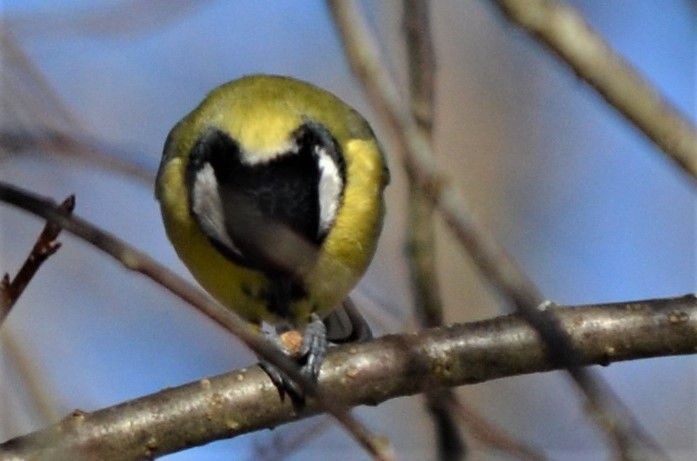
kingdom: Animalia
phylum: Chordata
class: Aves
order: Passeriformes
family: Paridae
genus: Parus
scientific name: Parus major
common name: Great tit
